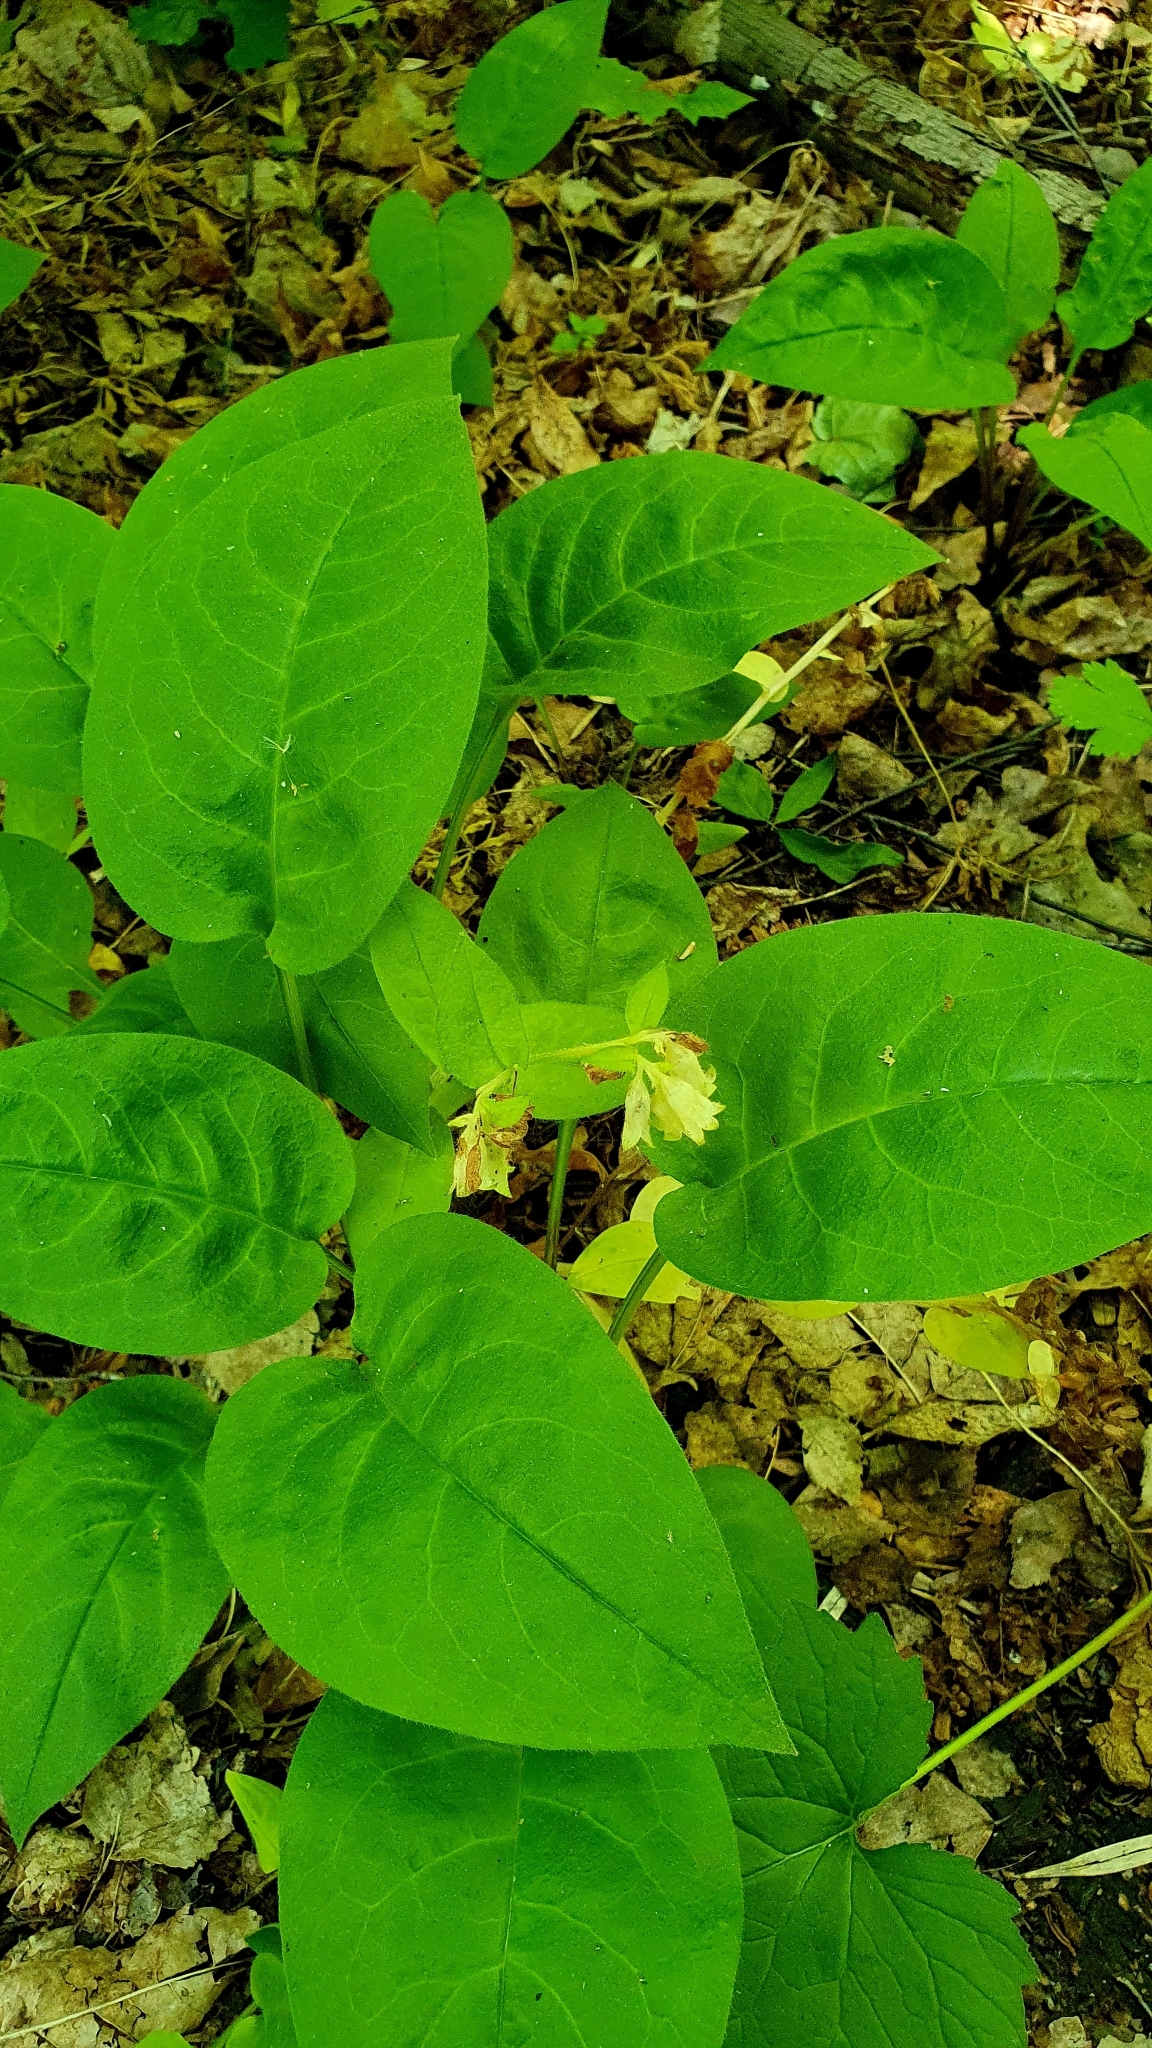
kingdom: Plantae
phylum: Tracheophyta
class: Magnoliopsida
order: Boraginales
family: Boraginaceae
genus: Pulmonaria
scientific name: Pulmonaria obscura
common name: Suffolk lungwort
